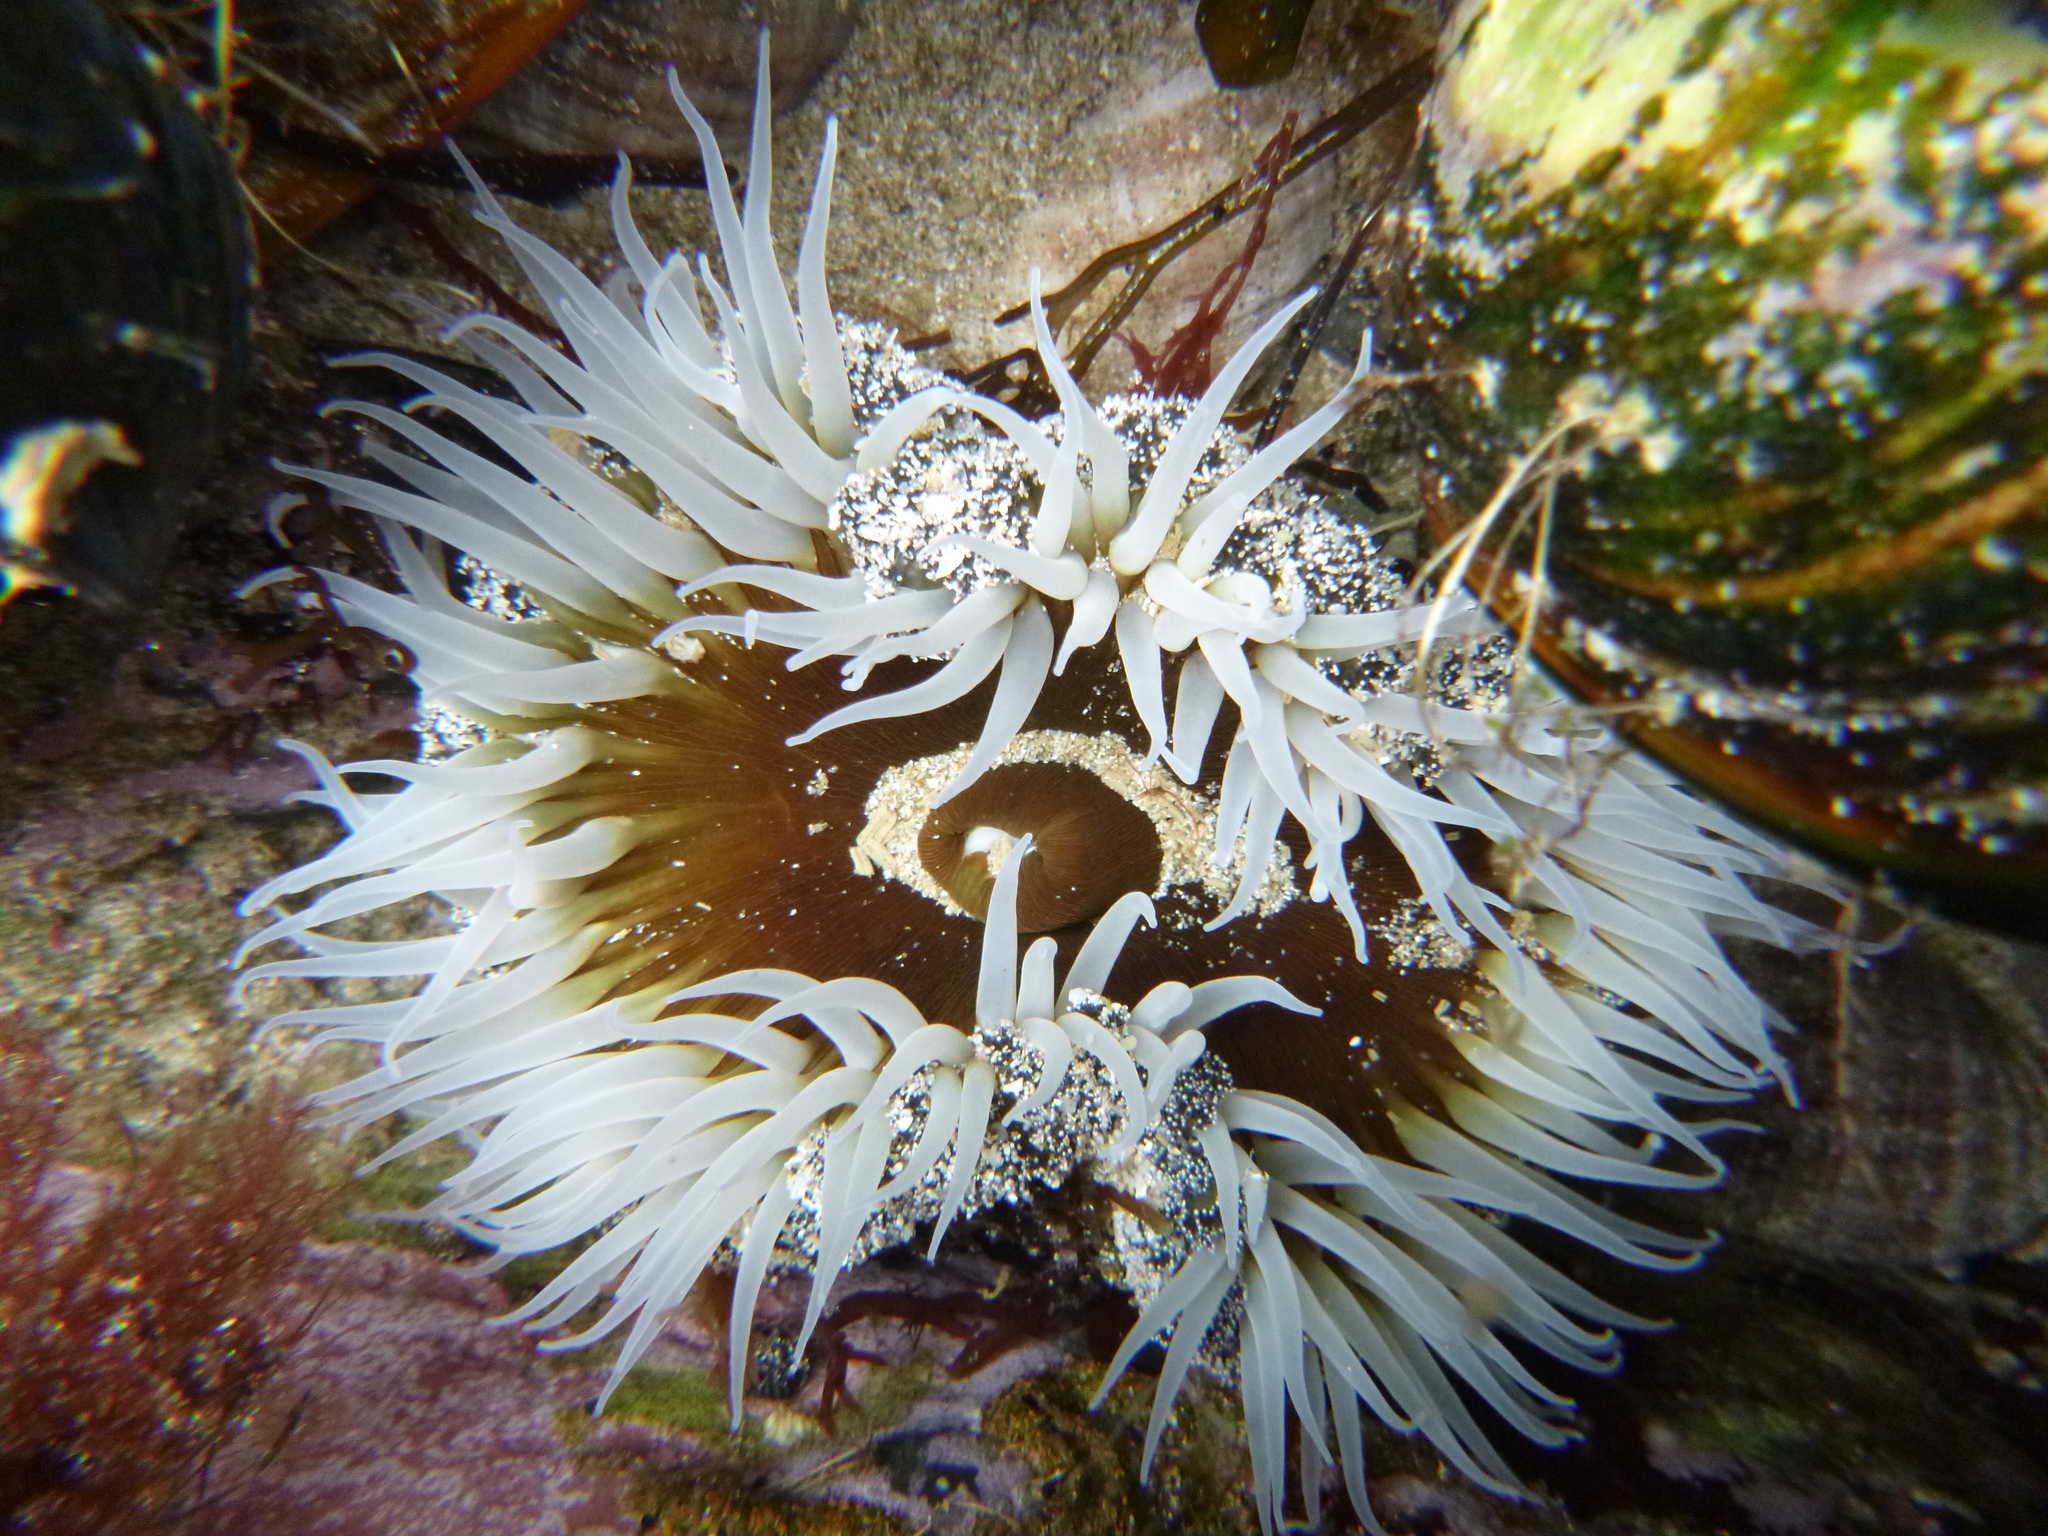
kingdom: Animalia
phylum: Cnidaria
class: Anthozoa
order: Actiniaria
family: Actiniidae
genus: Oulactis
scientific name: Oulactis magna
